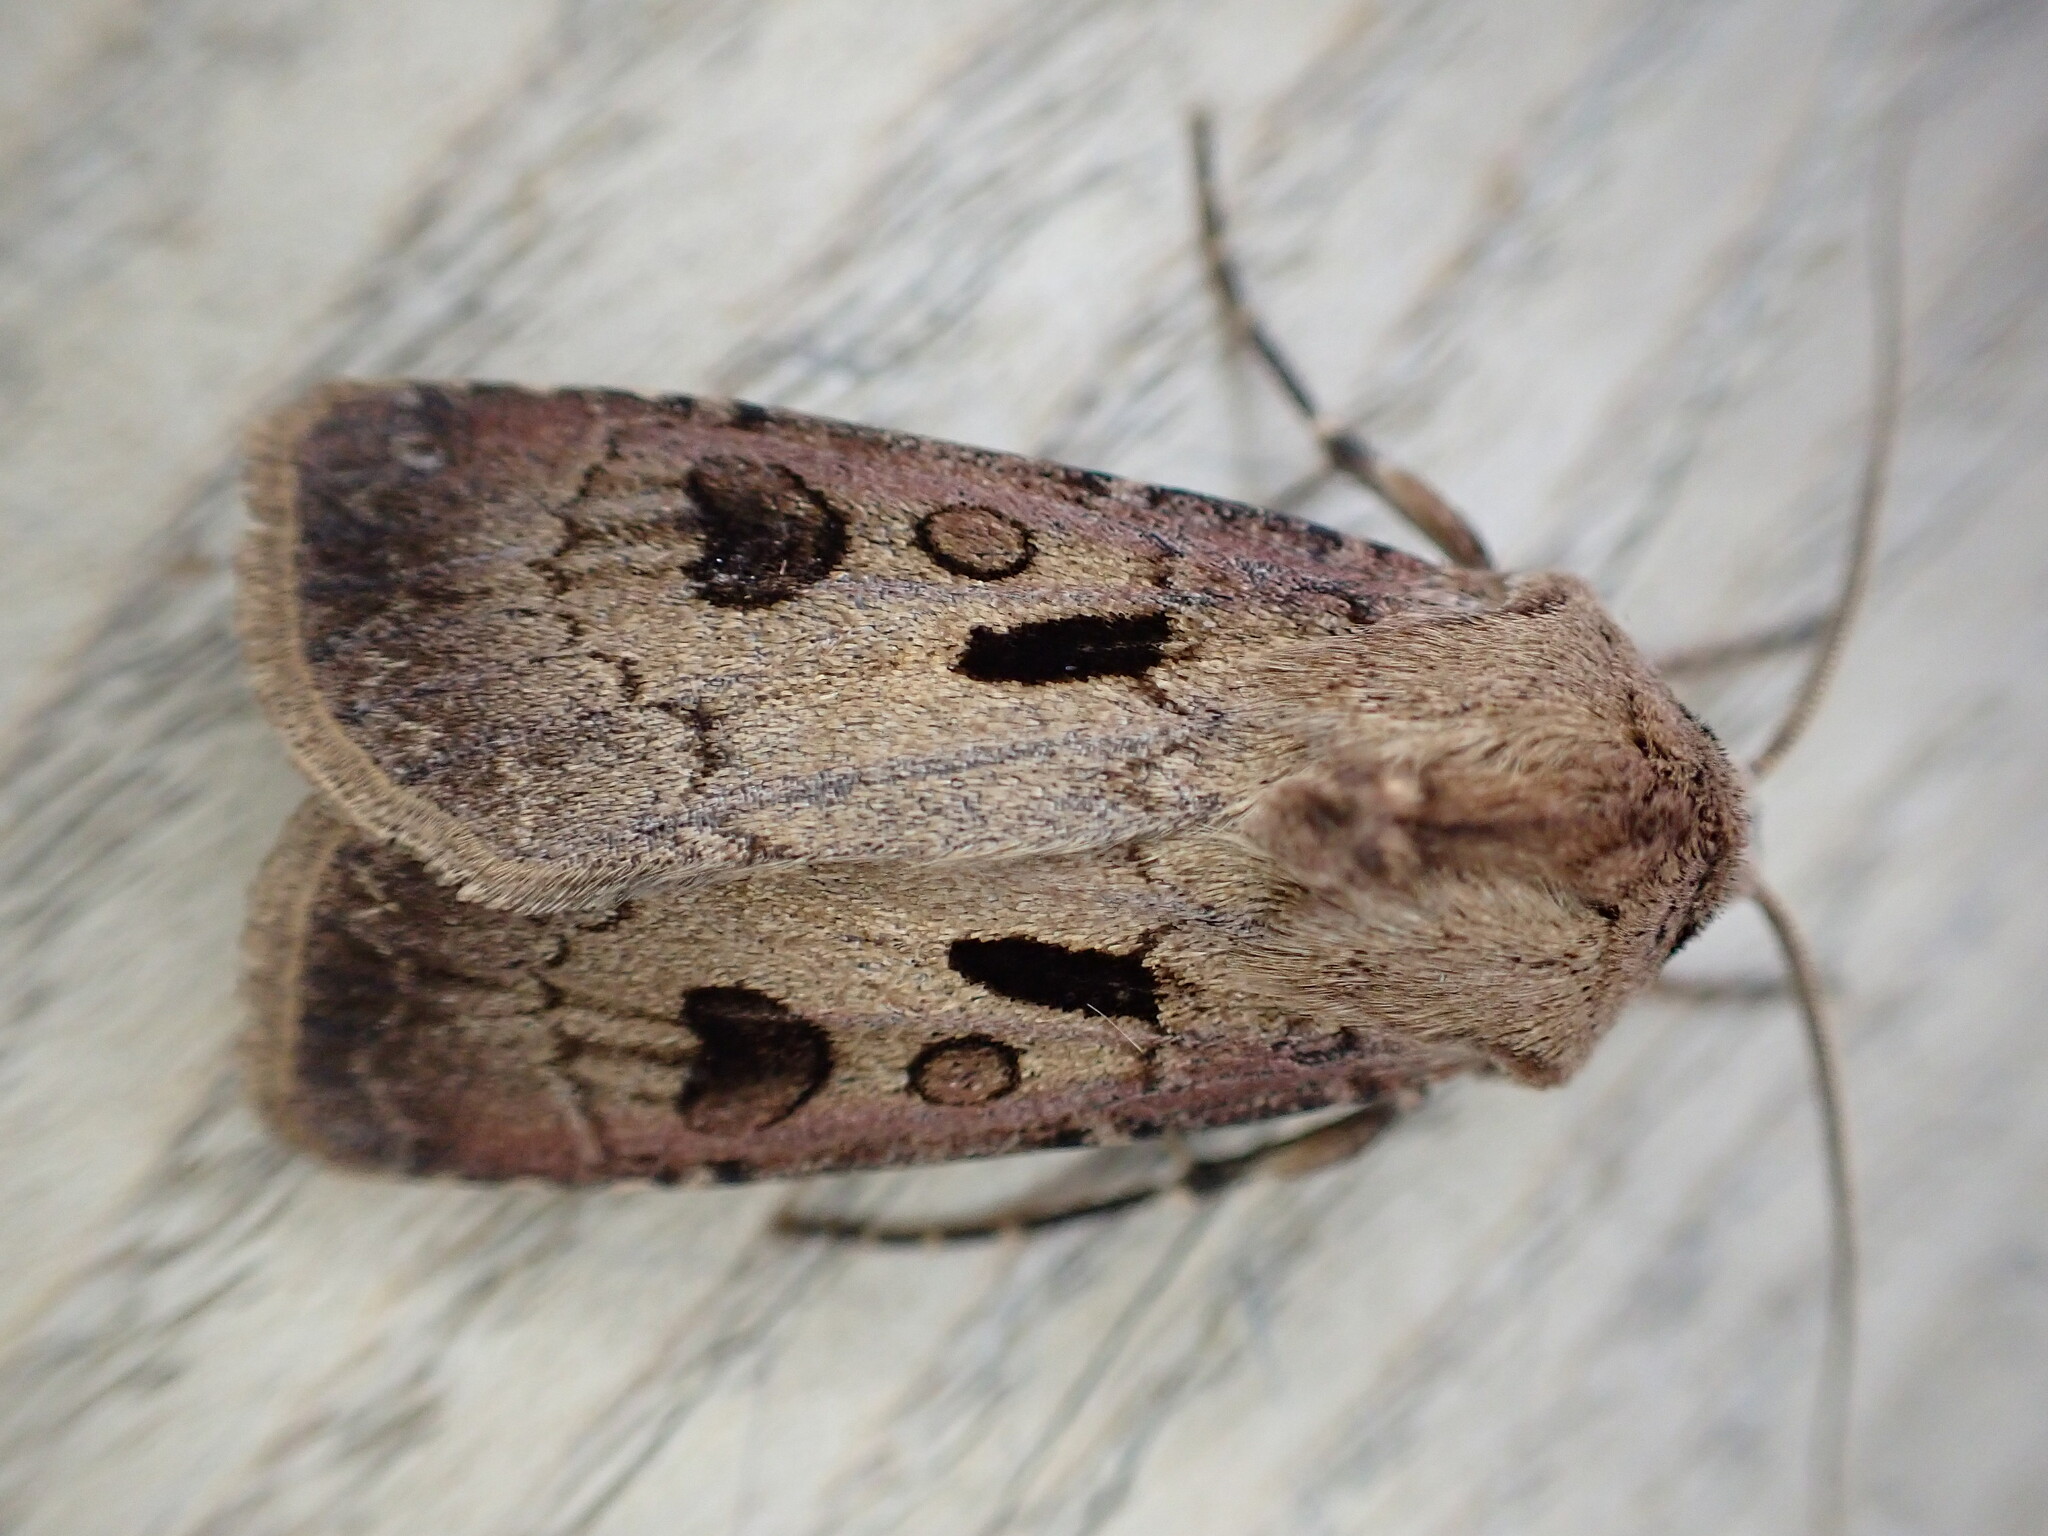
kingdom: Animalia
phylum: Arthropoda
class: Insecta
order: Lepidoptera
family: Noctuidae
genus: Agrotis
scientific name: Agrotis exclamationis
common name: Heart and dart
